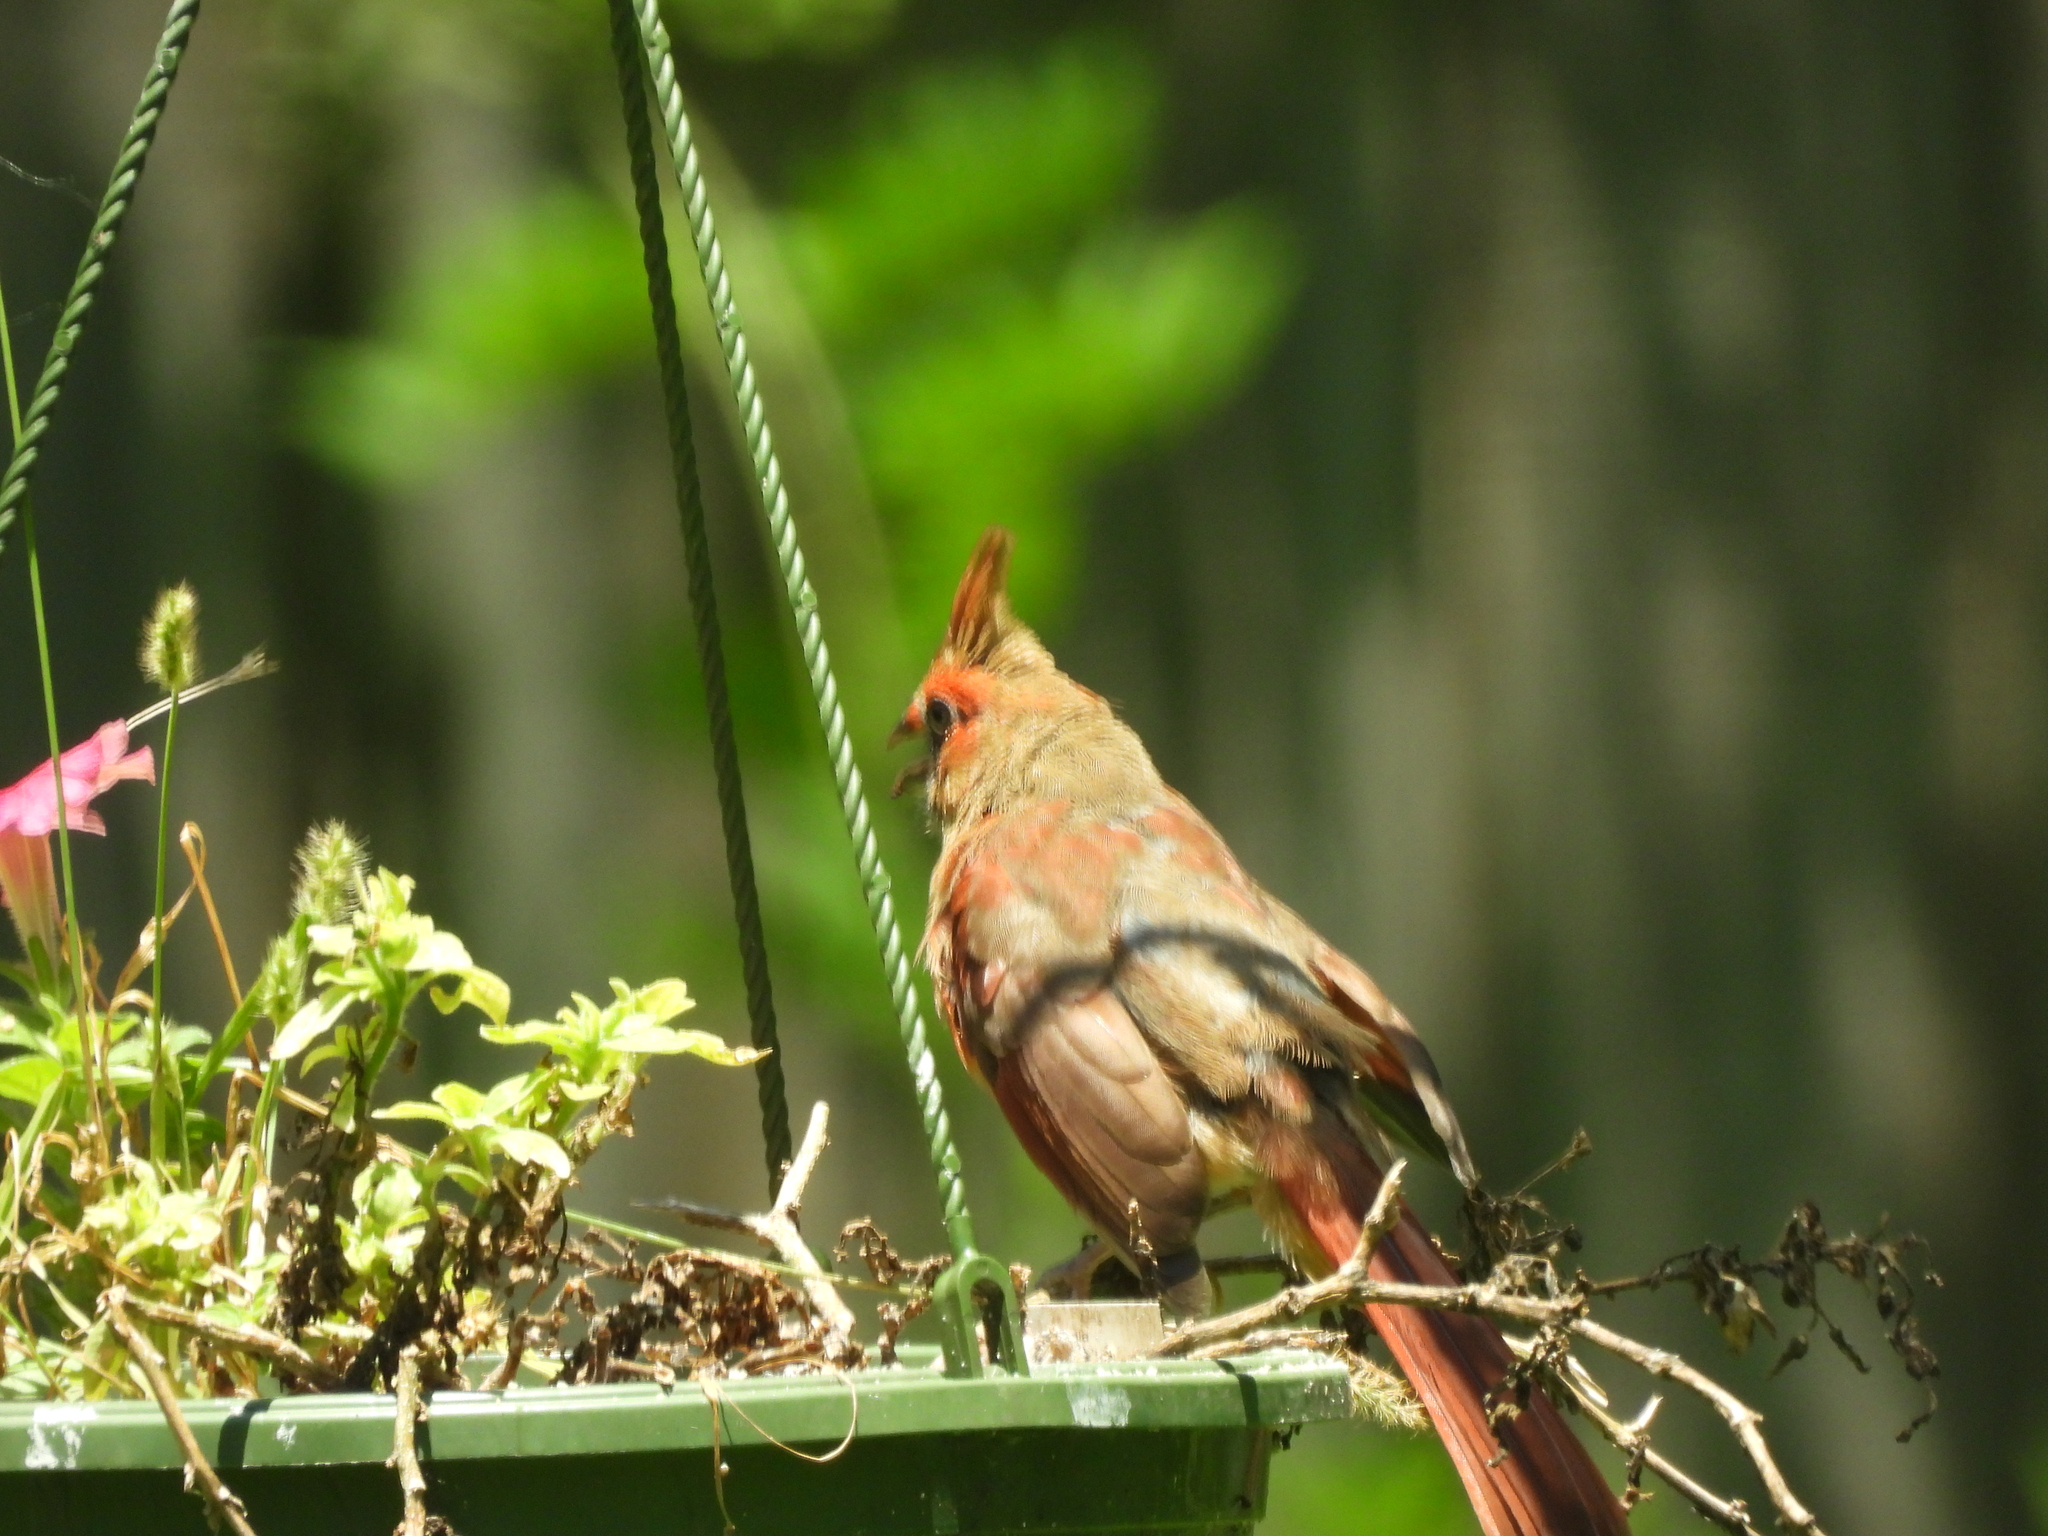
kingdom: Animalia
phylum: Chordata
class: Aves
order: Passeriformes
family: Cardinalidae
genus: Cardinalis
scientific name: Cardinalis cardinalis
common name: Northern cardinal
